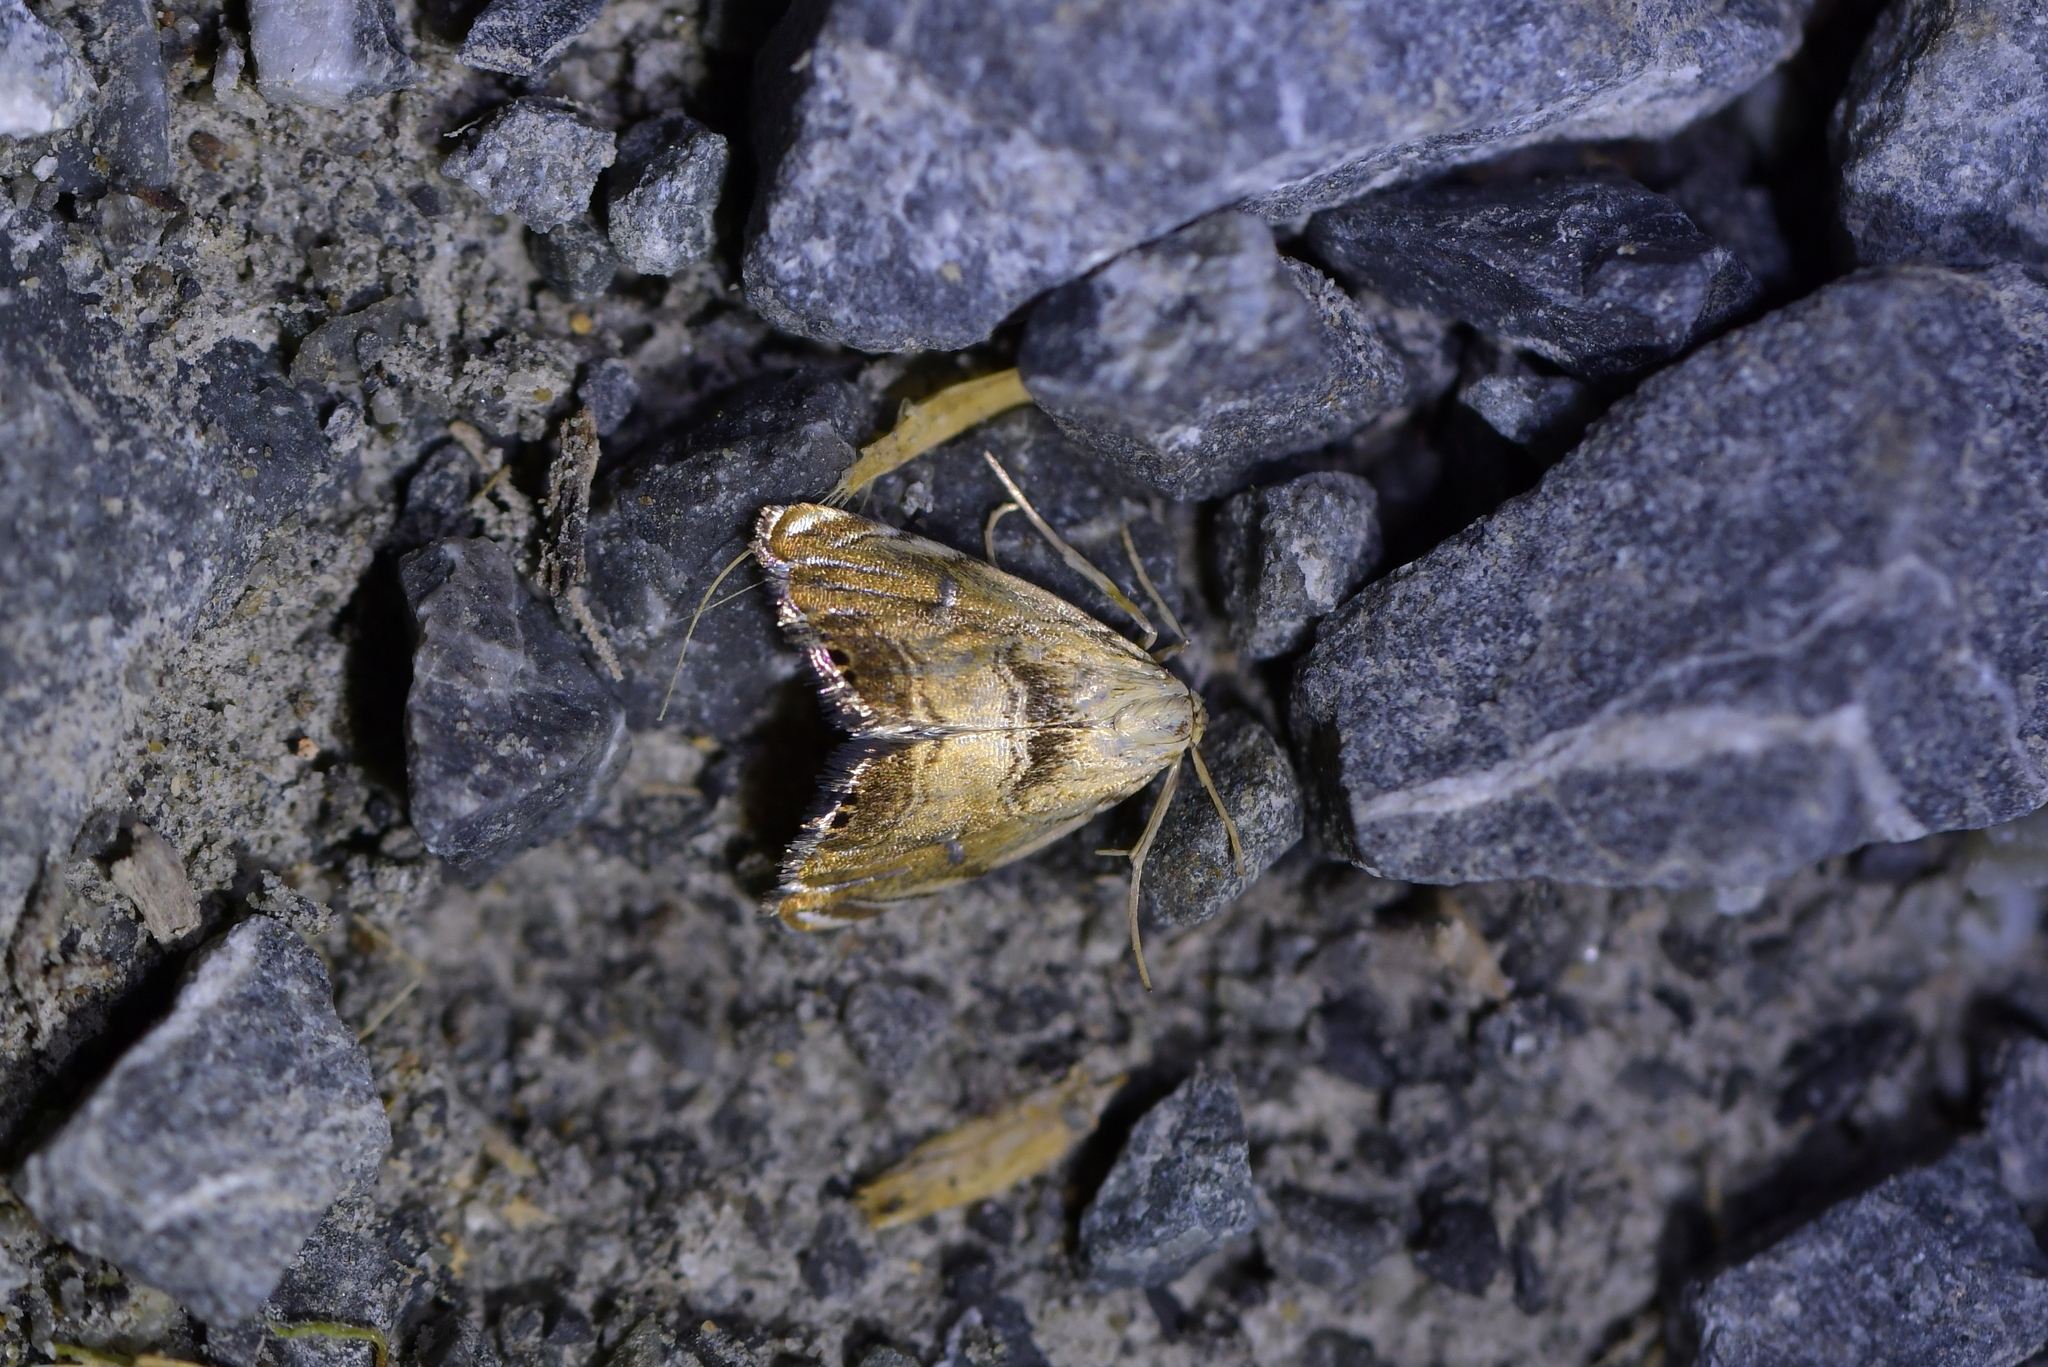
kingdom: Animalia
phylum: Arthropoda
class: Insecta
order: Lepidoptera
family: Crambidae
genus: Glaucocharis
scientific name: Glaucocharis harmonica
